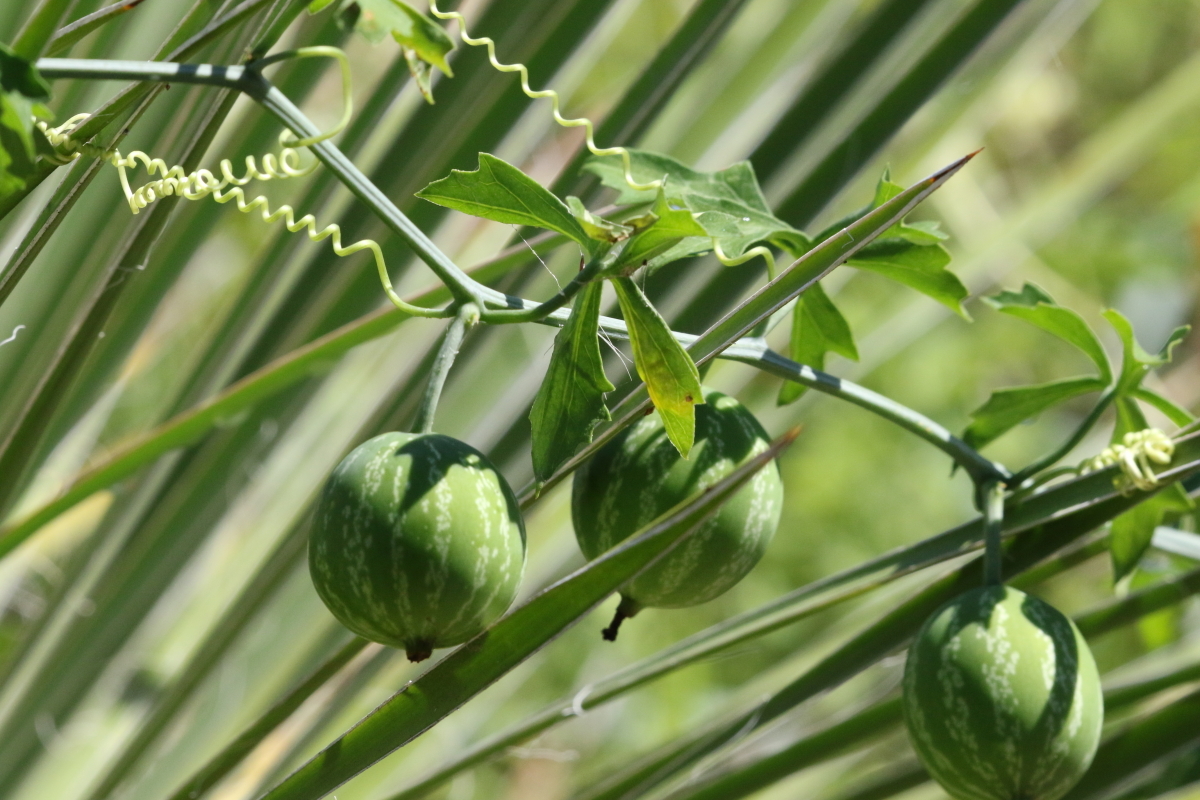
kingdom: Plantae
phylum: Tracheophyta
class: Magnoliopsida
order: Cucurbitales
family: Cucurbitaceae
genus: Ibervillea
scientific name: Ibervillea lindheimeri
